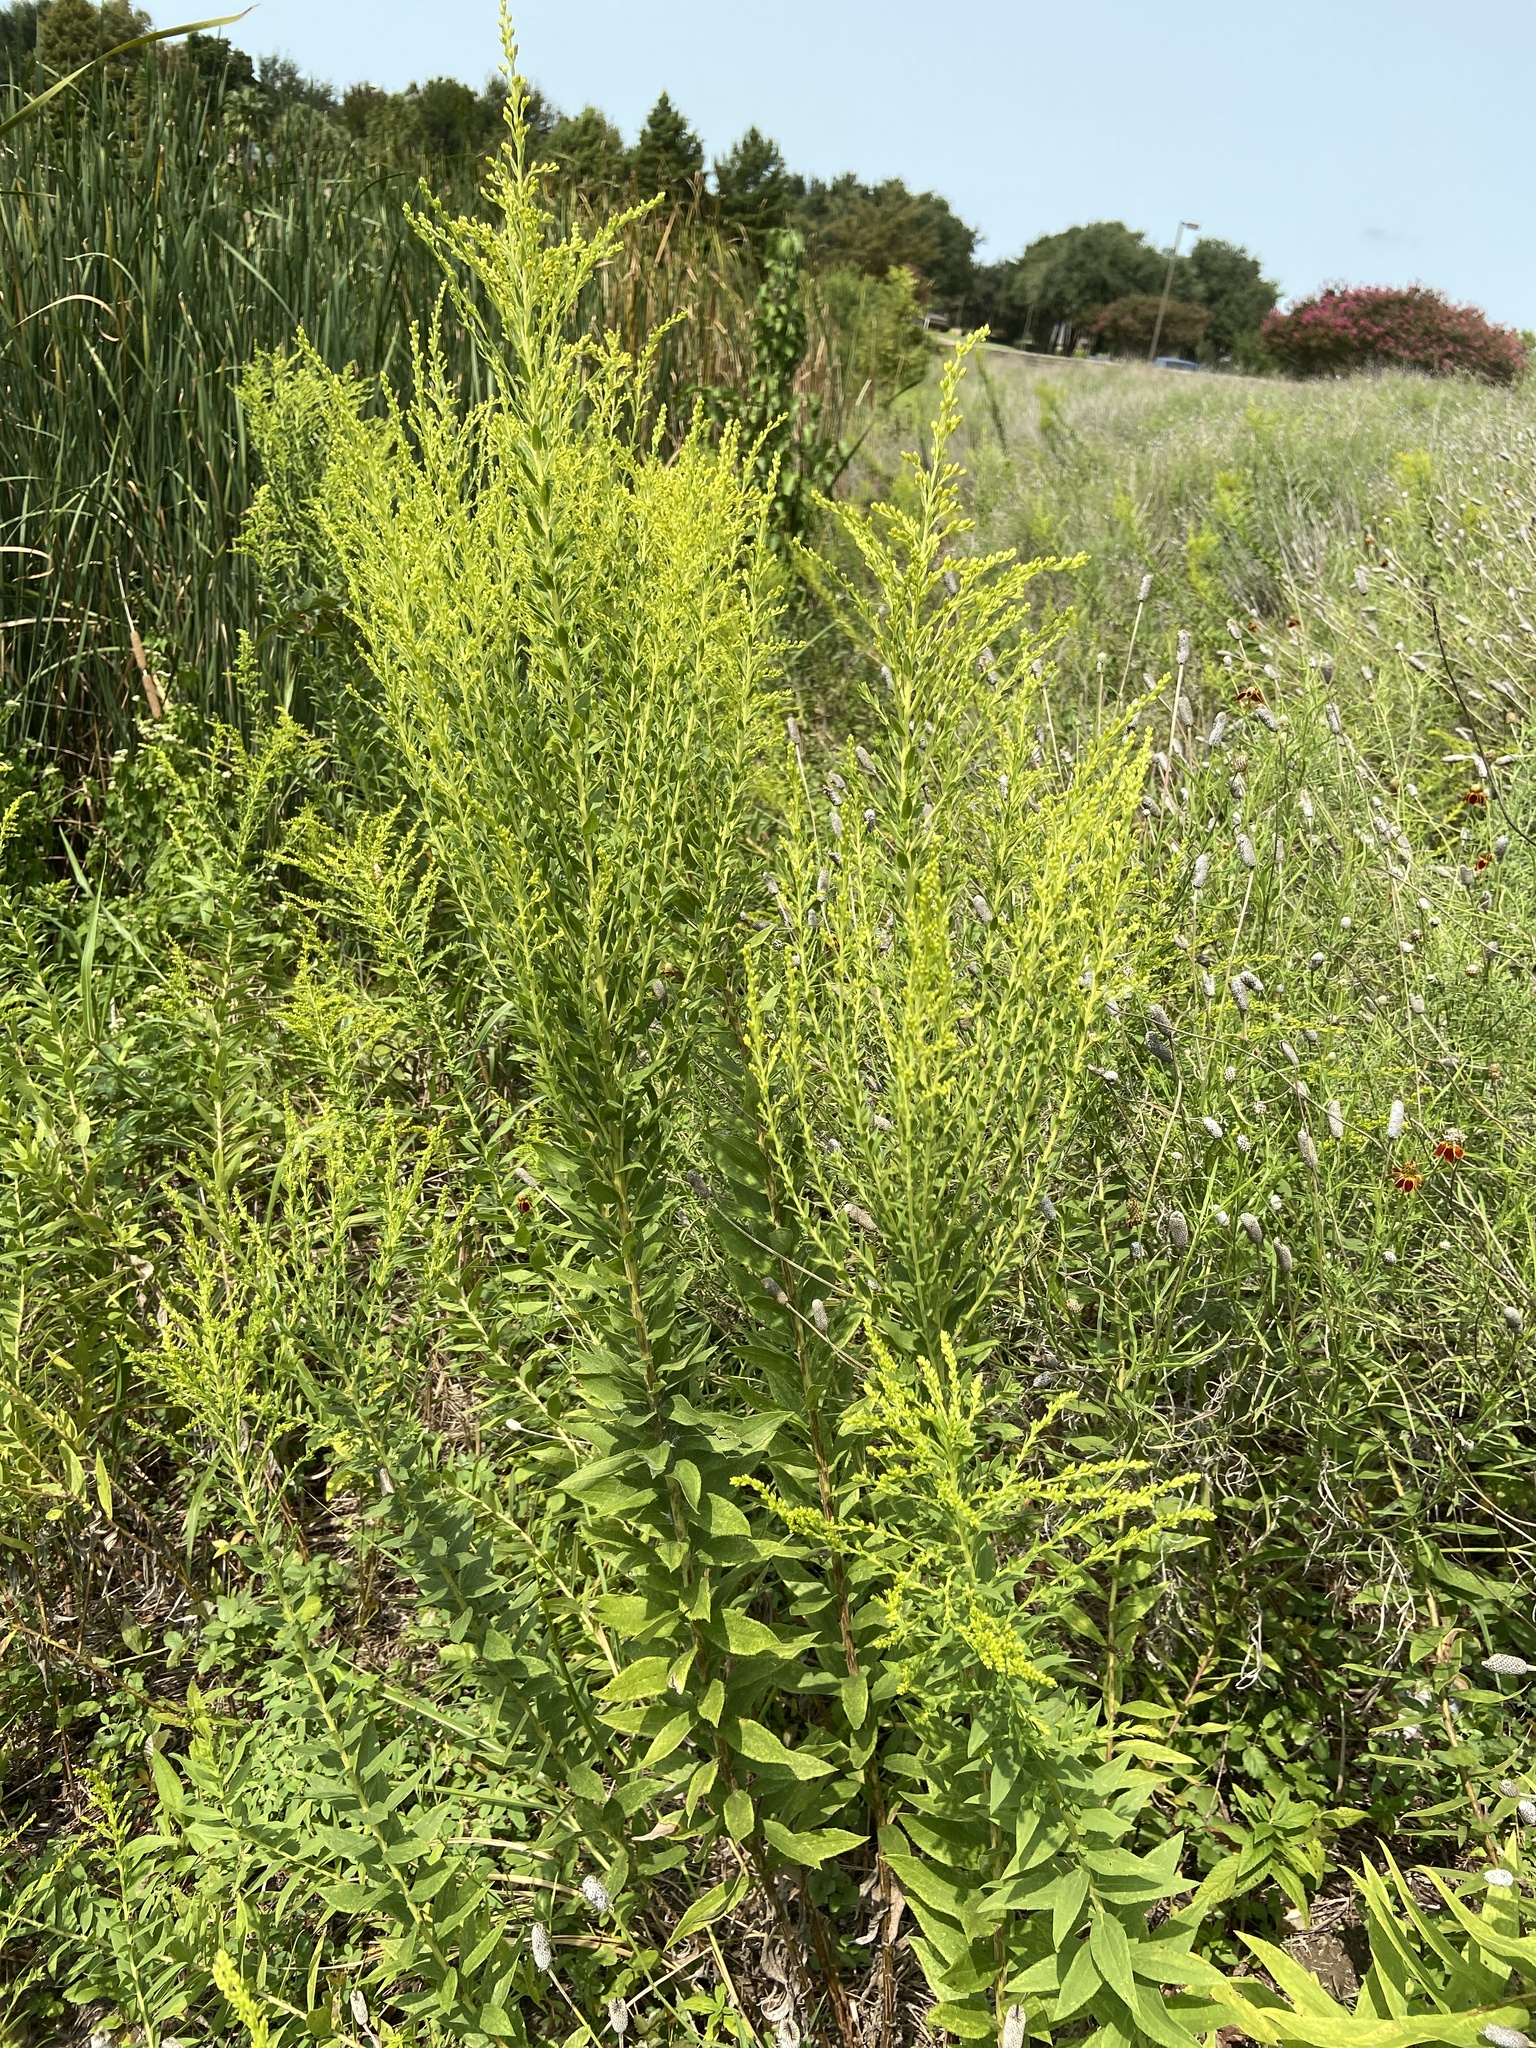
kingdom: Plantae
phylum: Tracheophyta
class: Magnoliopsida
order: Asterales
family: Asteraceae
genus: Solidago
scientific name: Solidago altissima
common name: Late goldenrod
